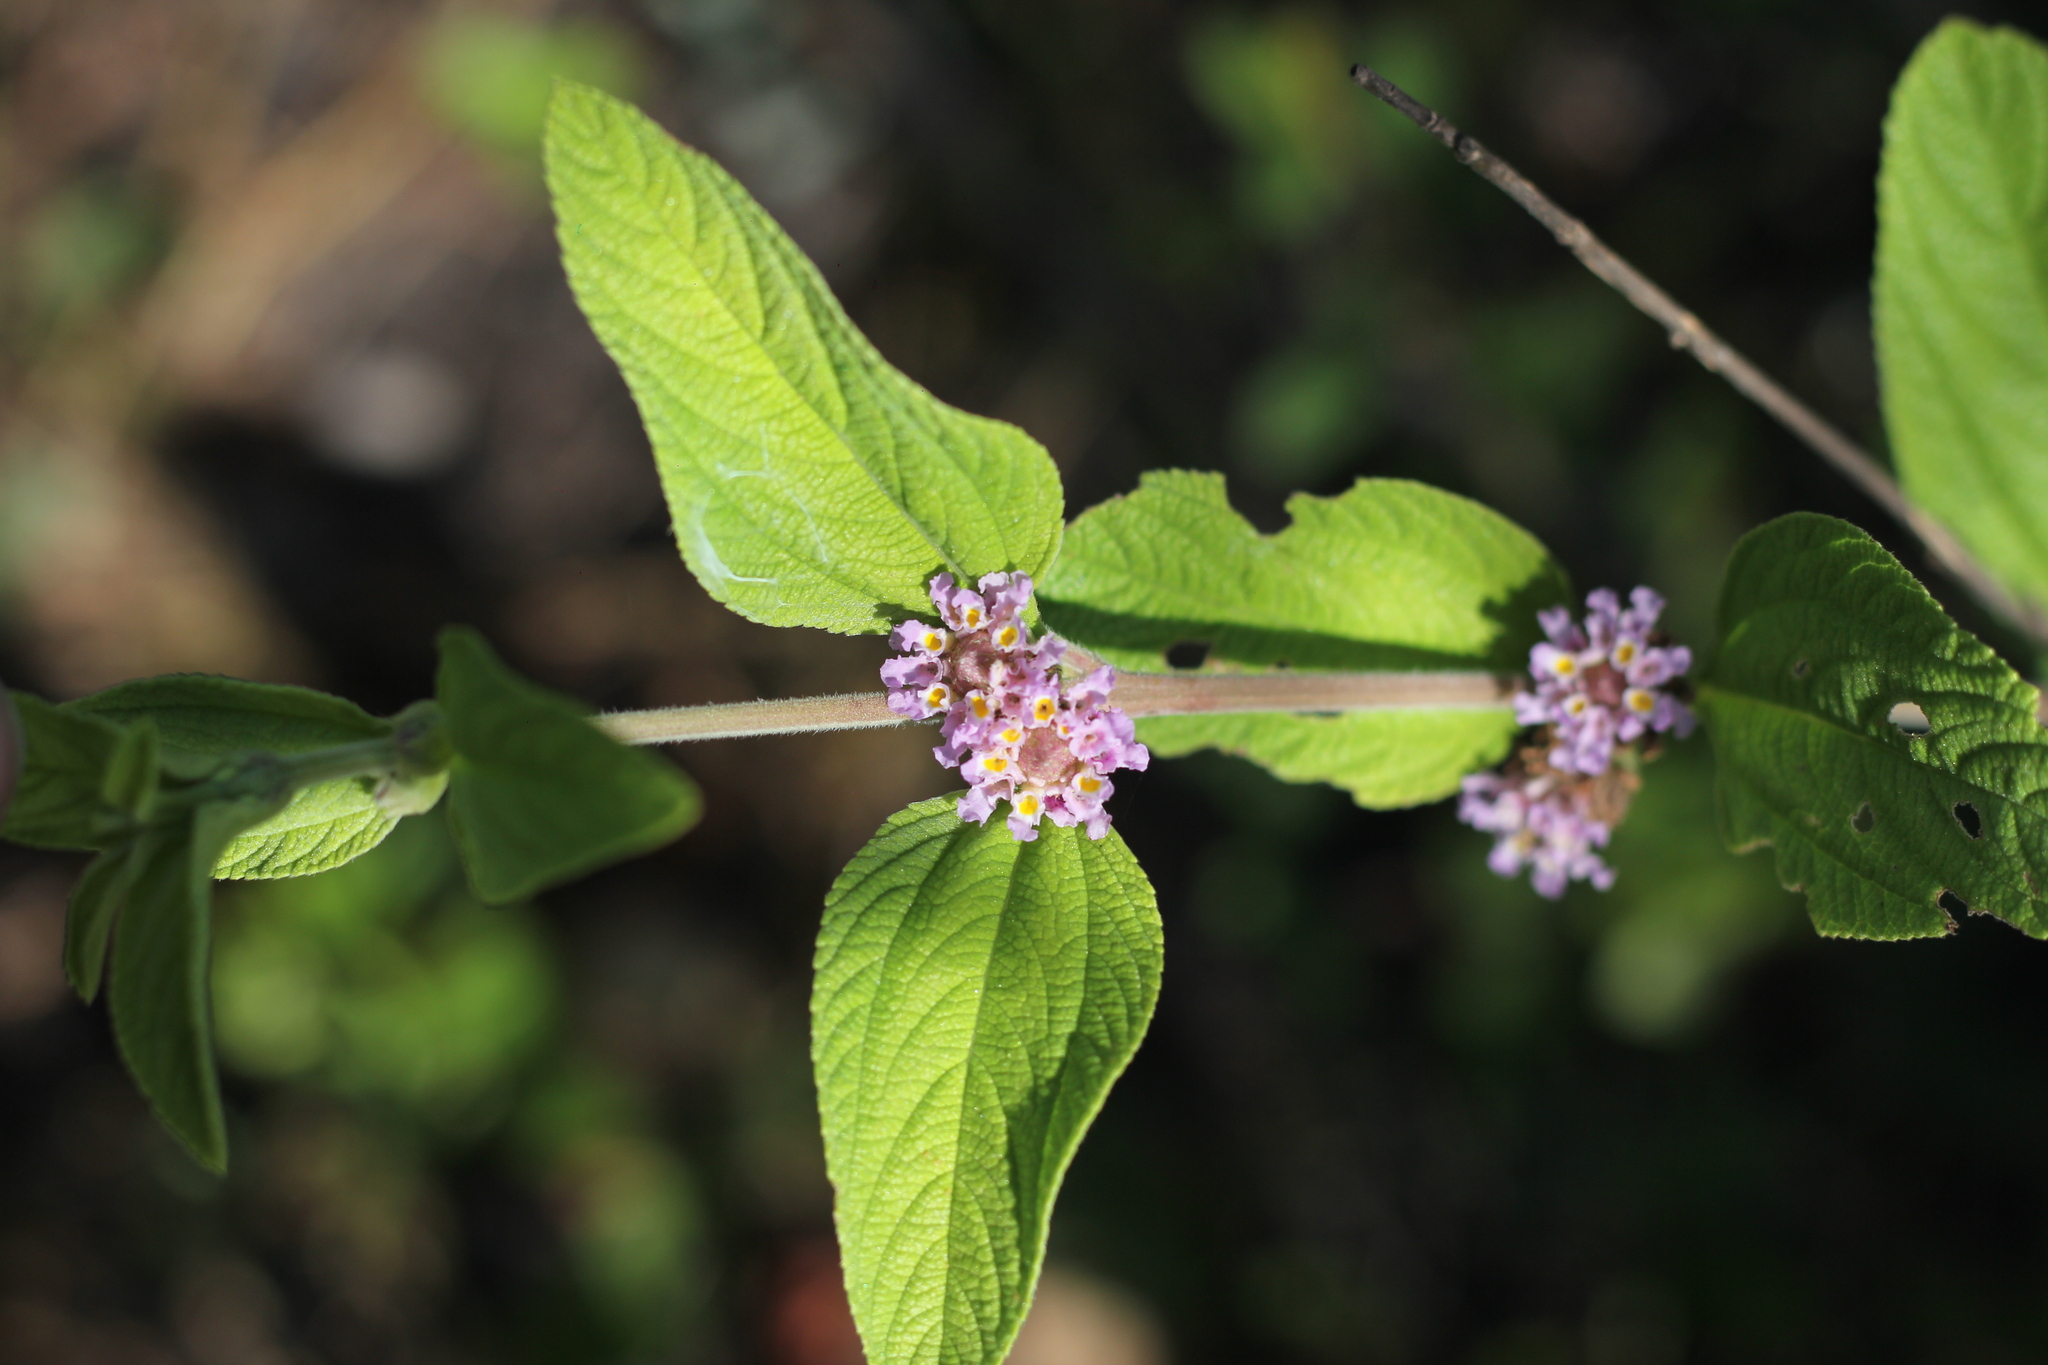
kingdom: Plantae
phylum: Tracheophyta
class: Magnoliopsida
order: Lamiales
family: Verbenaceae
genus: Lippia
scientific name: Lippia alba
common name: Bushy matgrass
